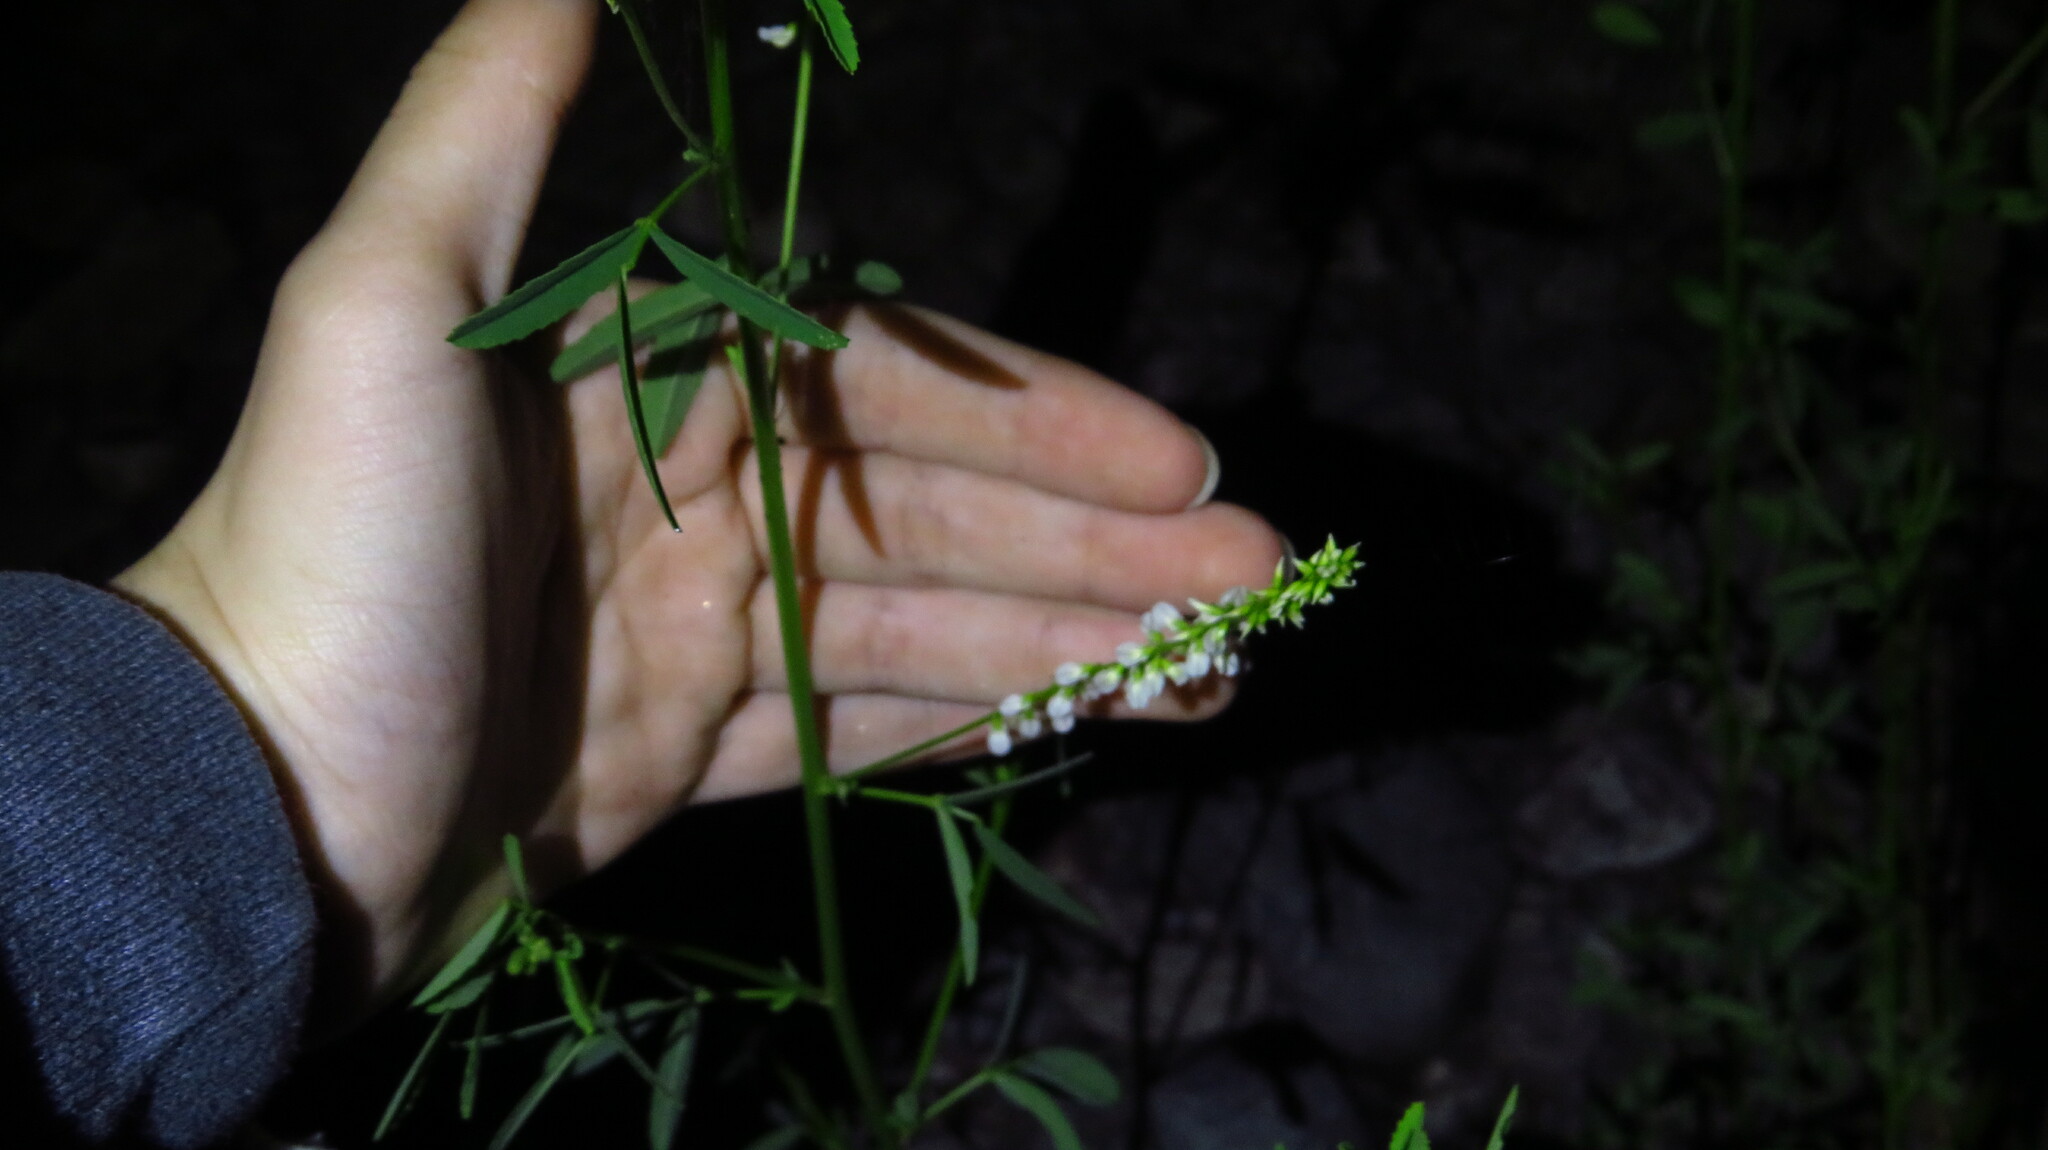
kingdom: Plantae
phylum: Tracheophyta
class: Magnoliopsida
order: Fabales
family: Fabaceae
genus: Melilotus
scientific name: Melilotus albus
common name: White melilot
